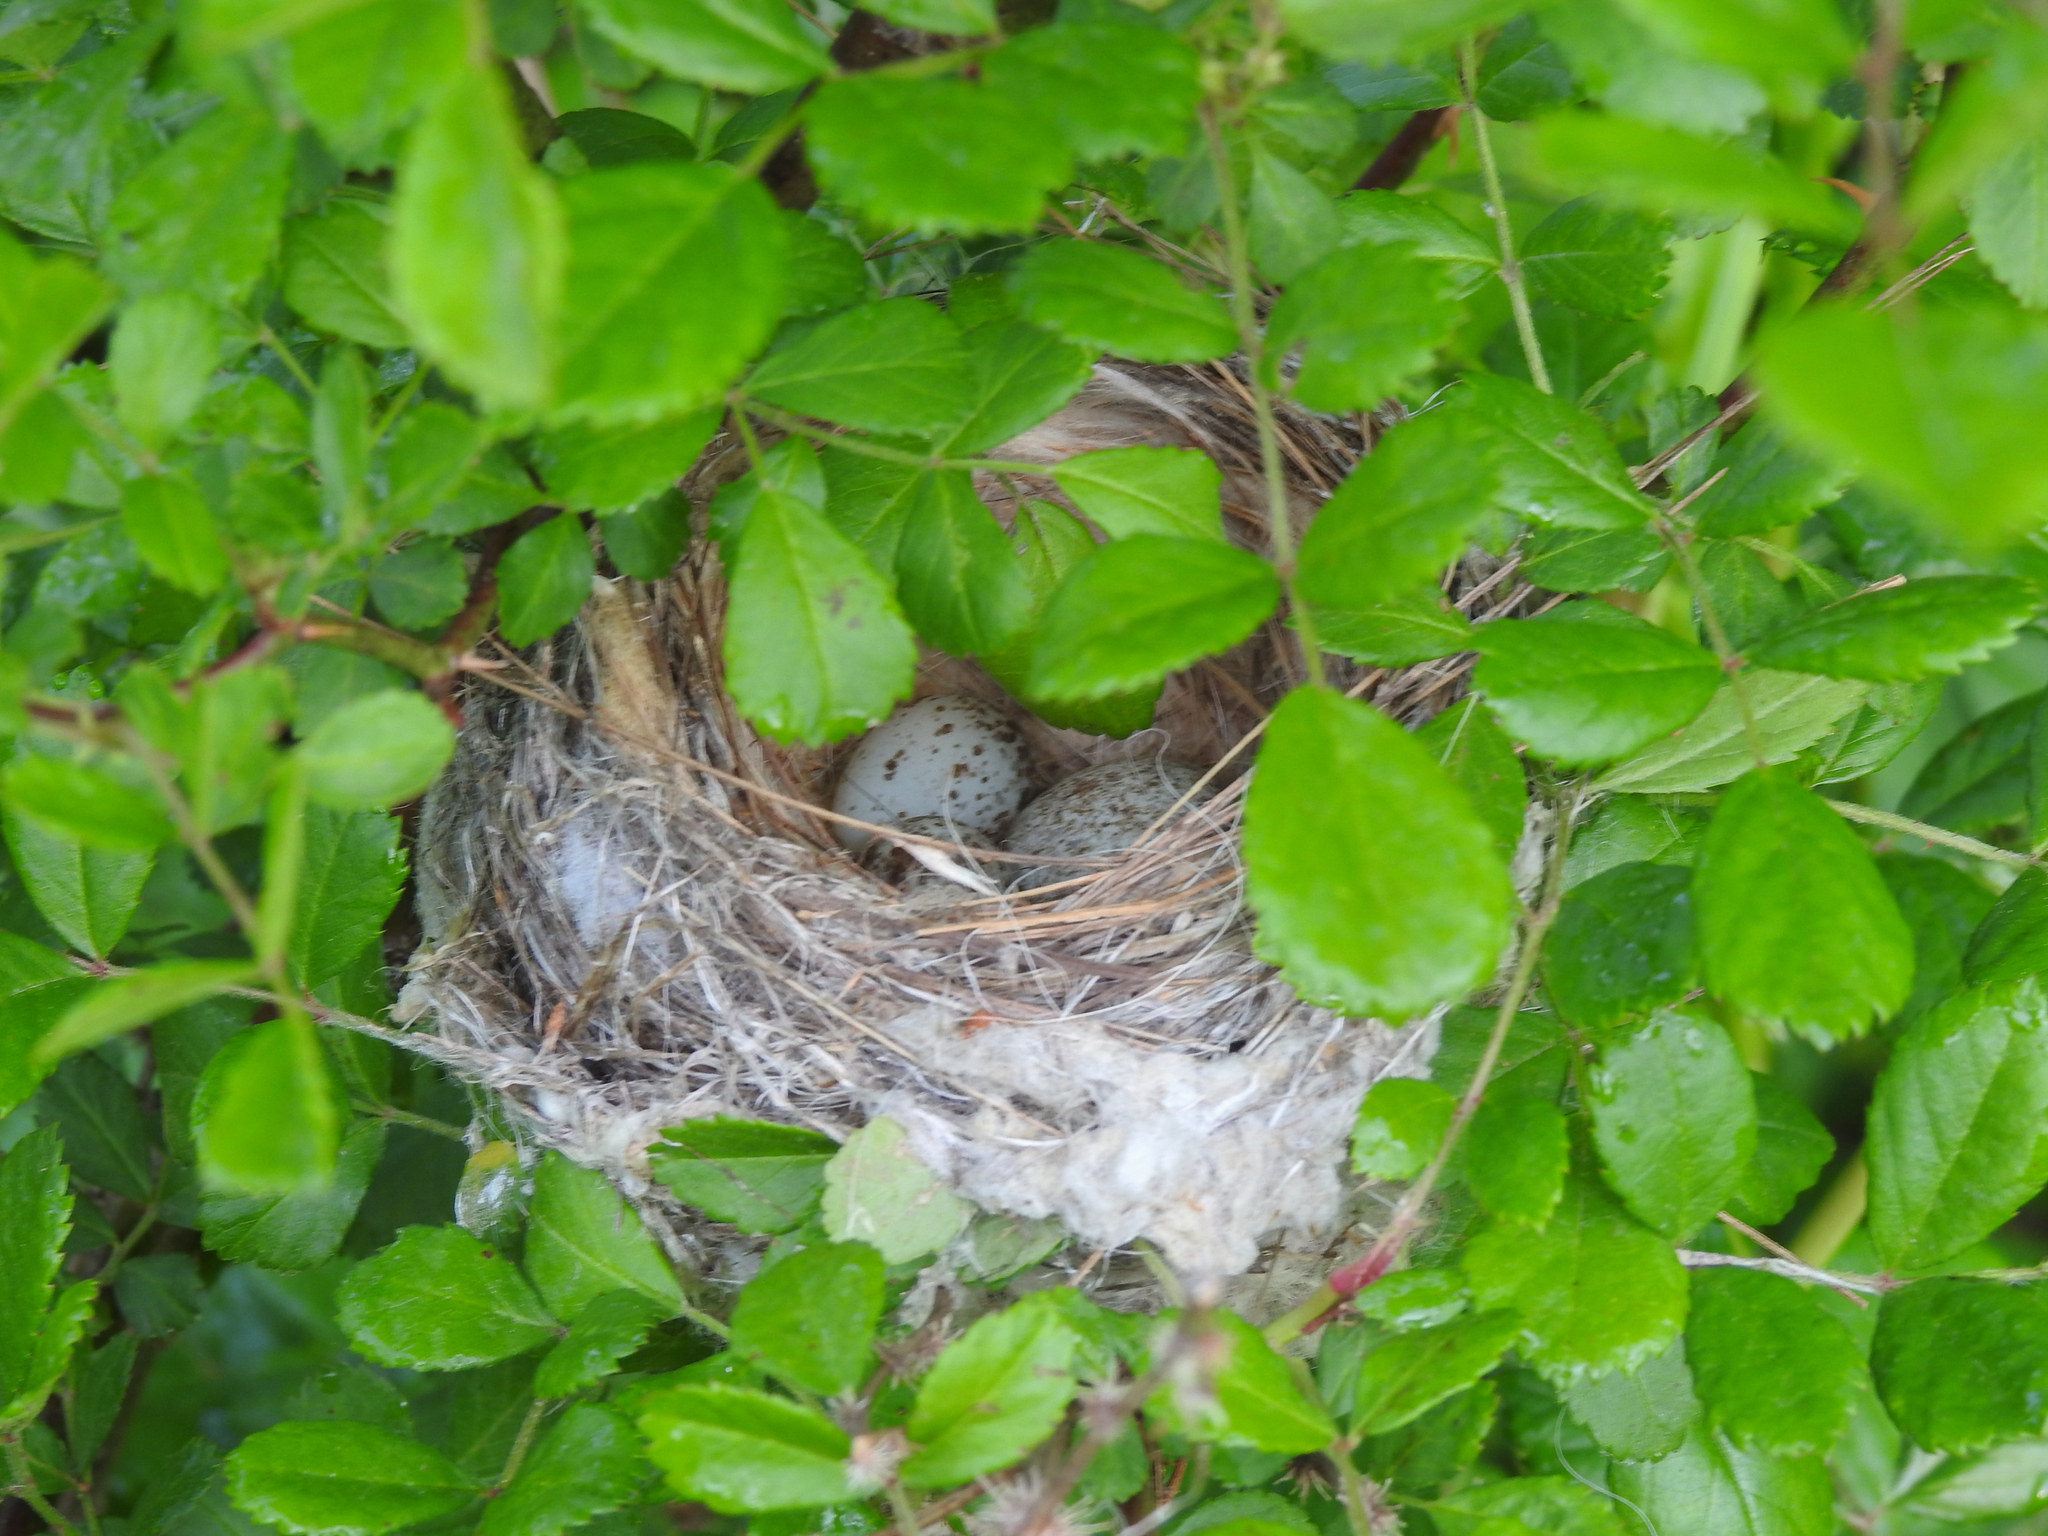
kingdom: Animalia
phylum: Chordata
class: Aves
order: Passeriformes
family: Parulidae
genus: Setophaga
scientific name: Setophaga petechia
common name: Yellow warbler
